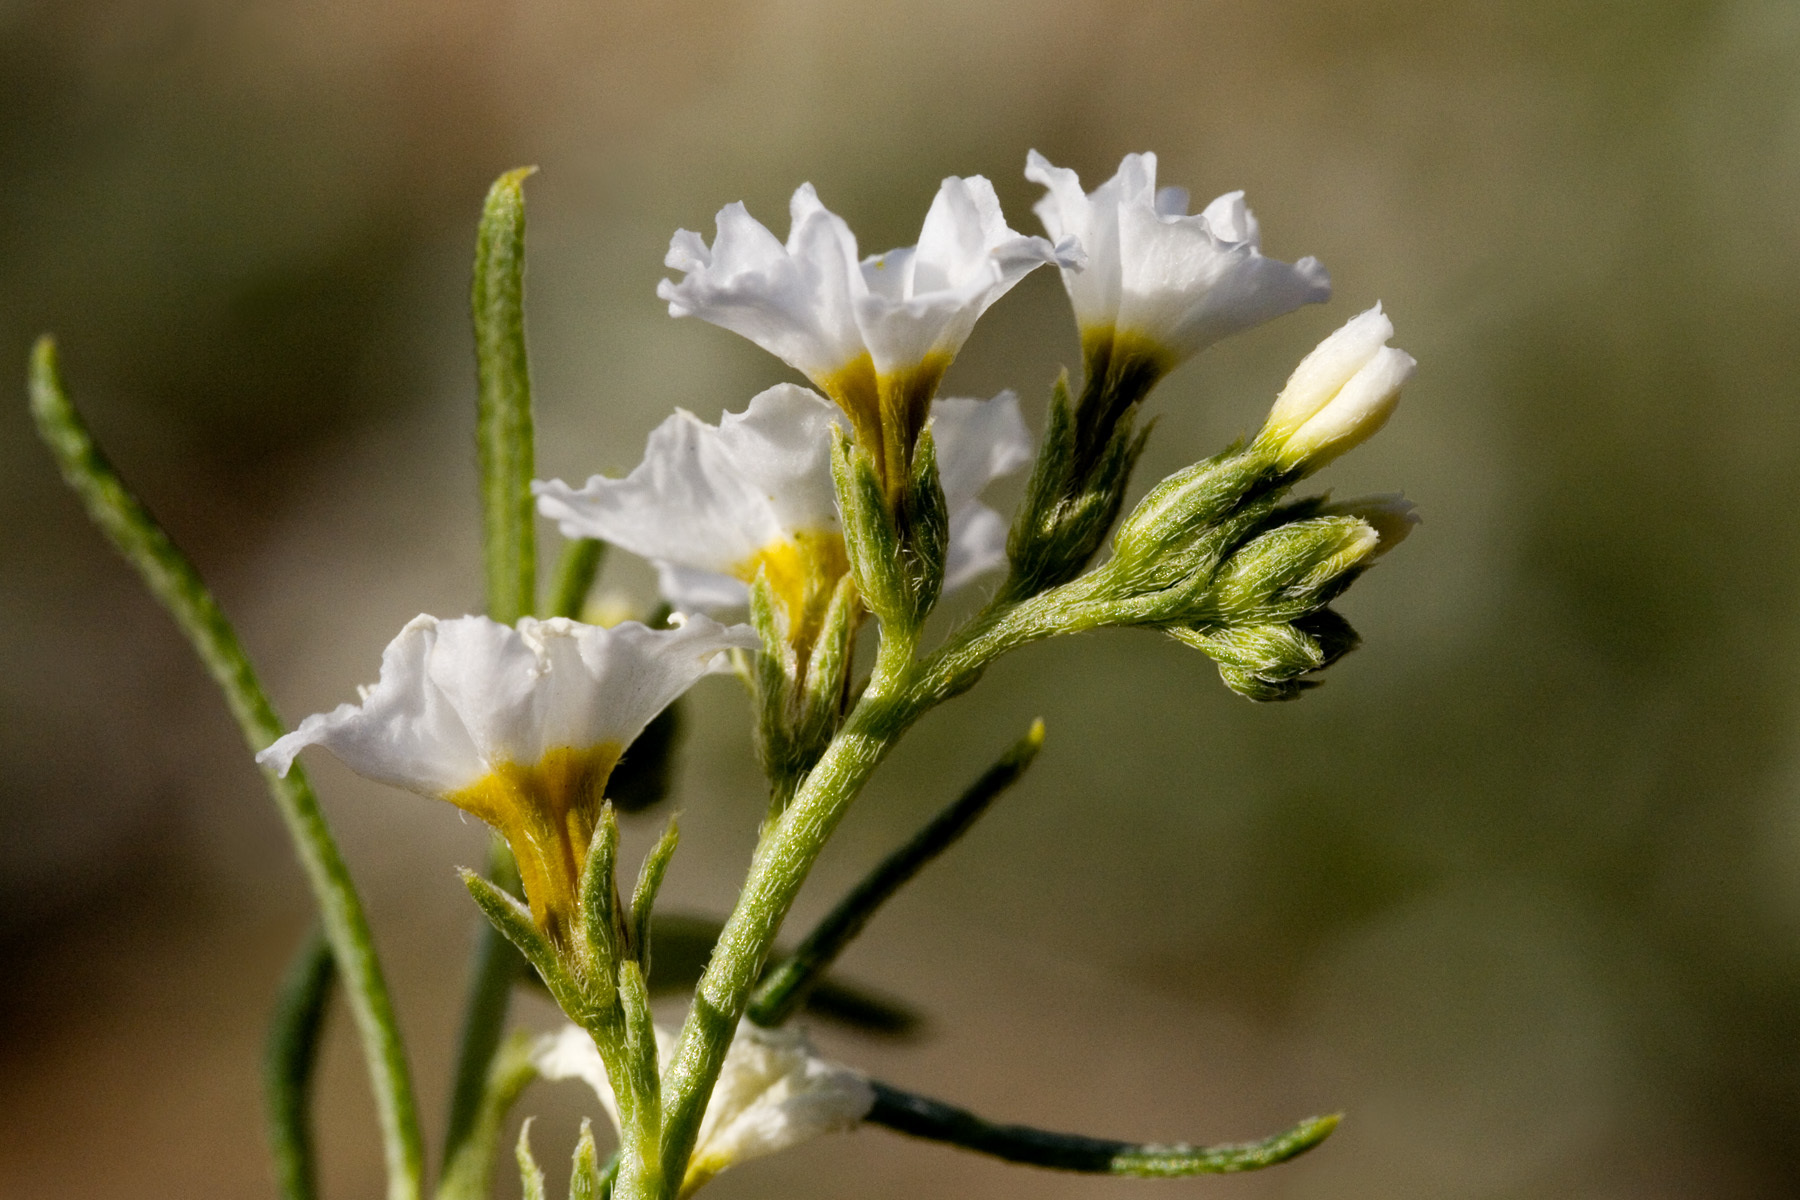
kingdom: Plantae
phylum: Tracheophyta
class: Magnoliopsida
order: Boraginales
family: Heliotropiaceae
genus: Euploca
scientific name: Euploca greggii
